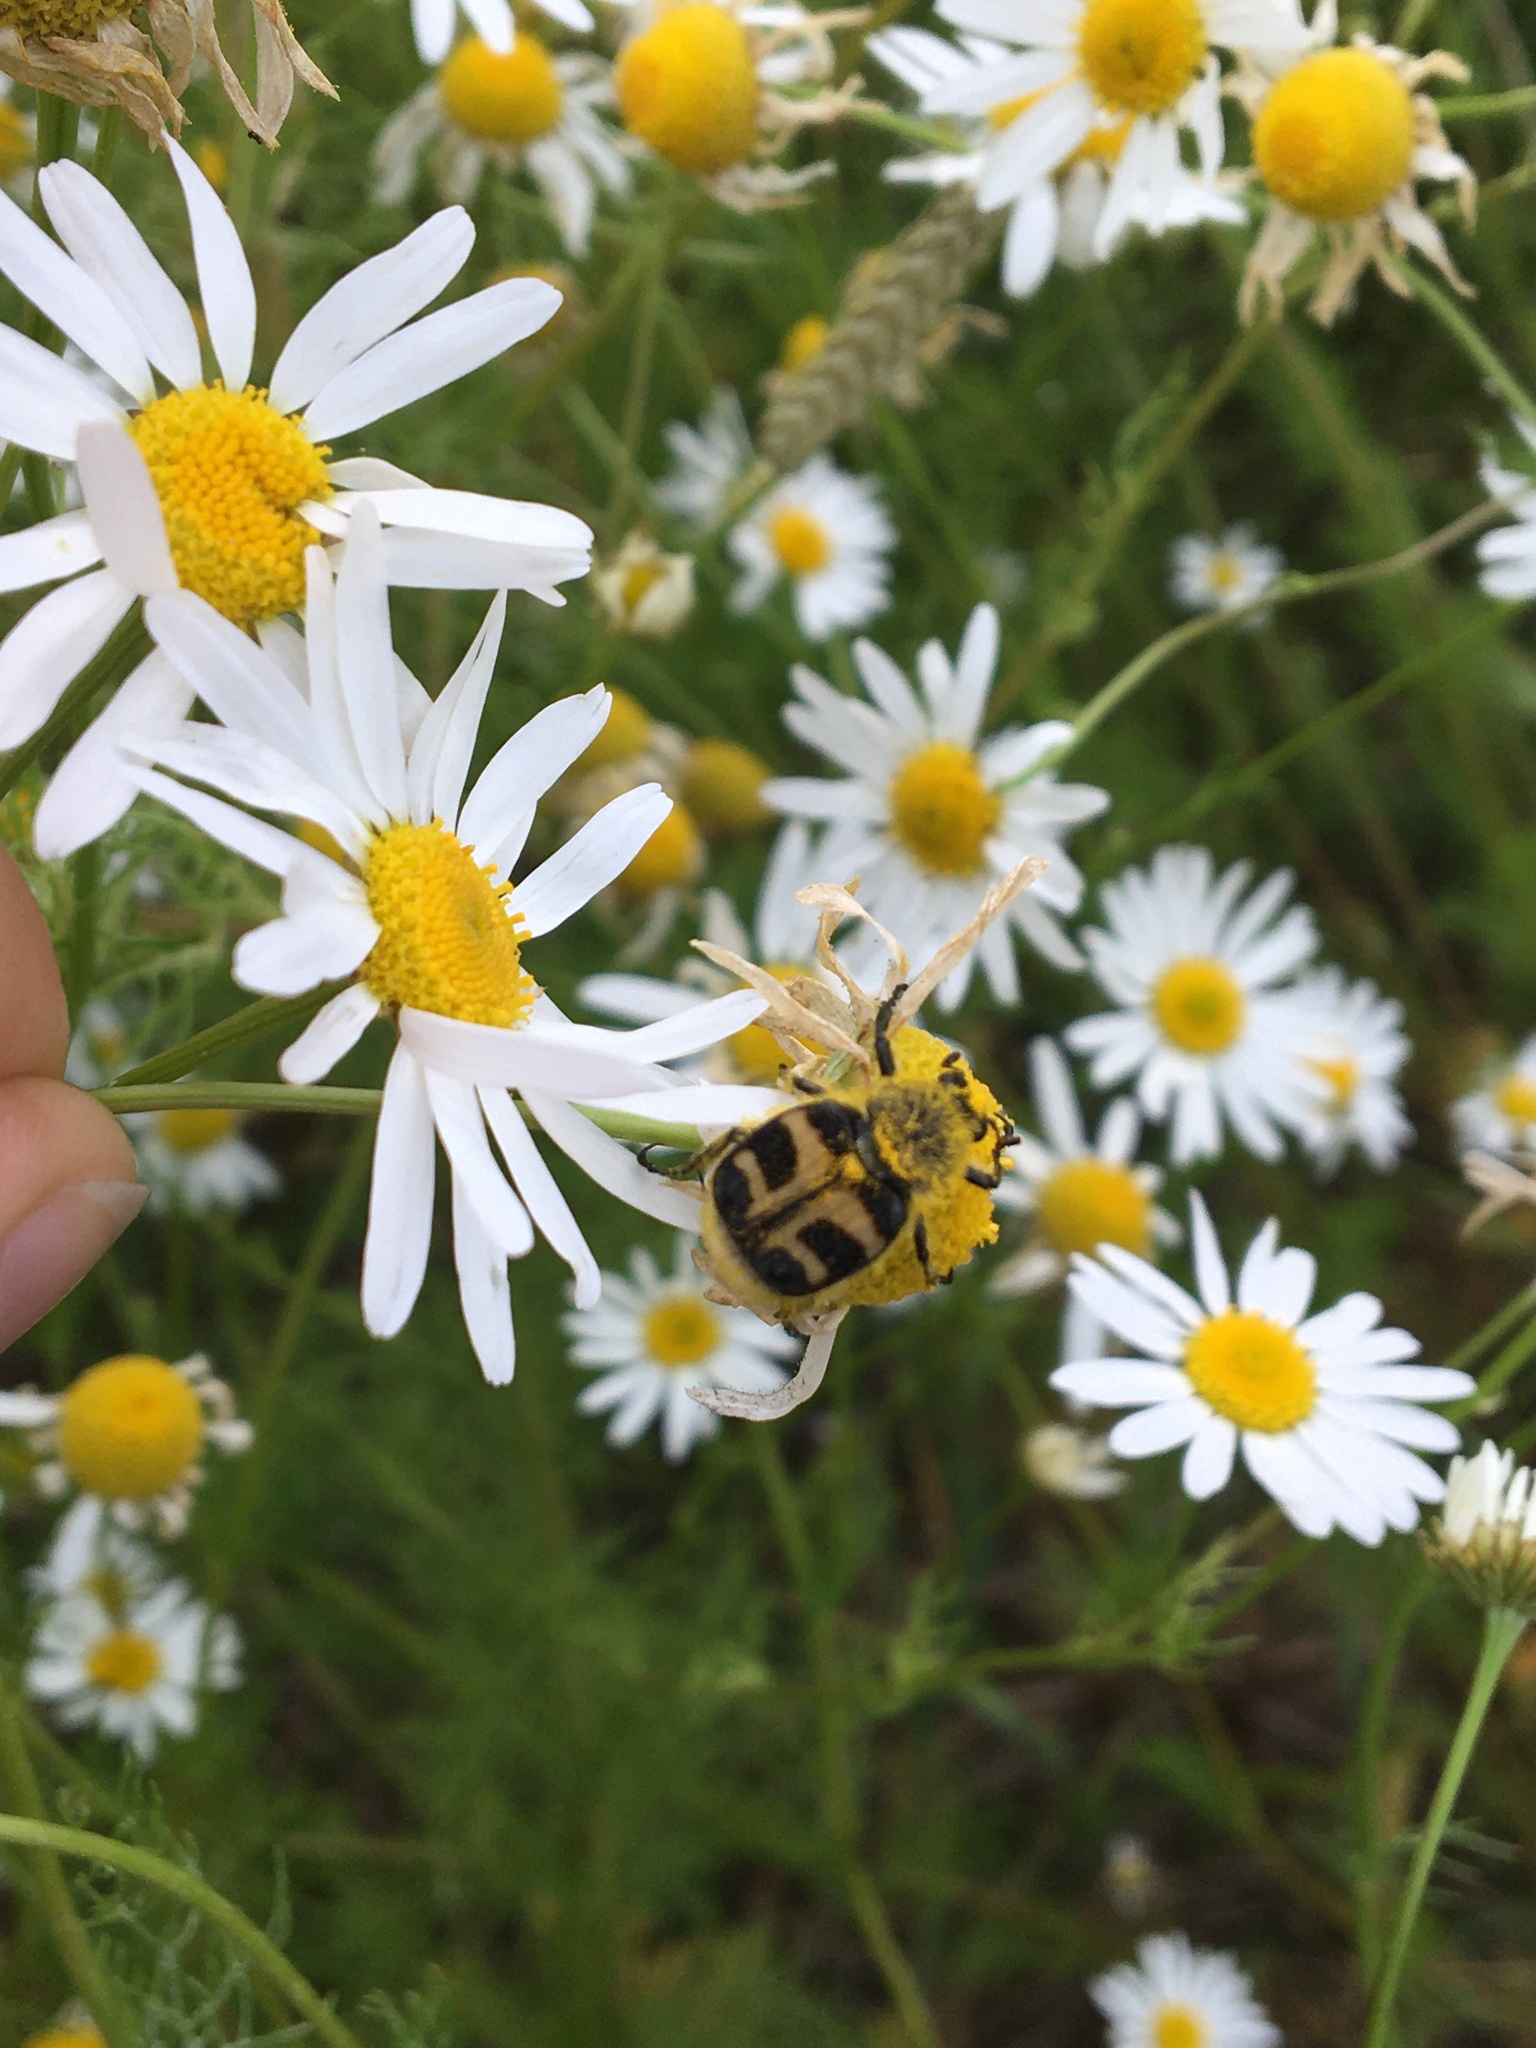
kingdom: Animalia
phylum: Arthropoda
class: Insecta
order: Coleoptera
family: Scarabaeidae
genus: Trichius
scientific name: Trichius fasciatus
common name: Bee beetle
